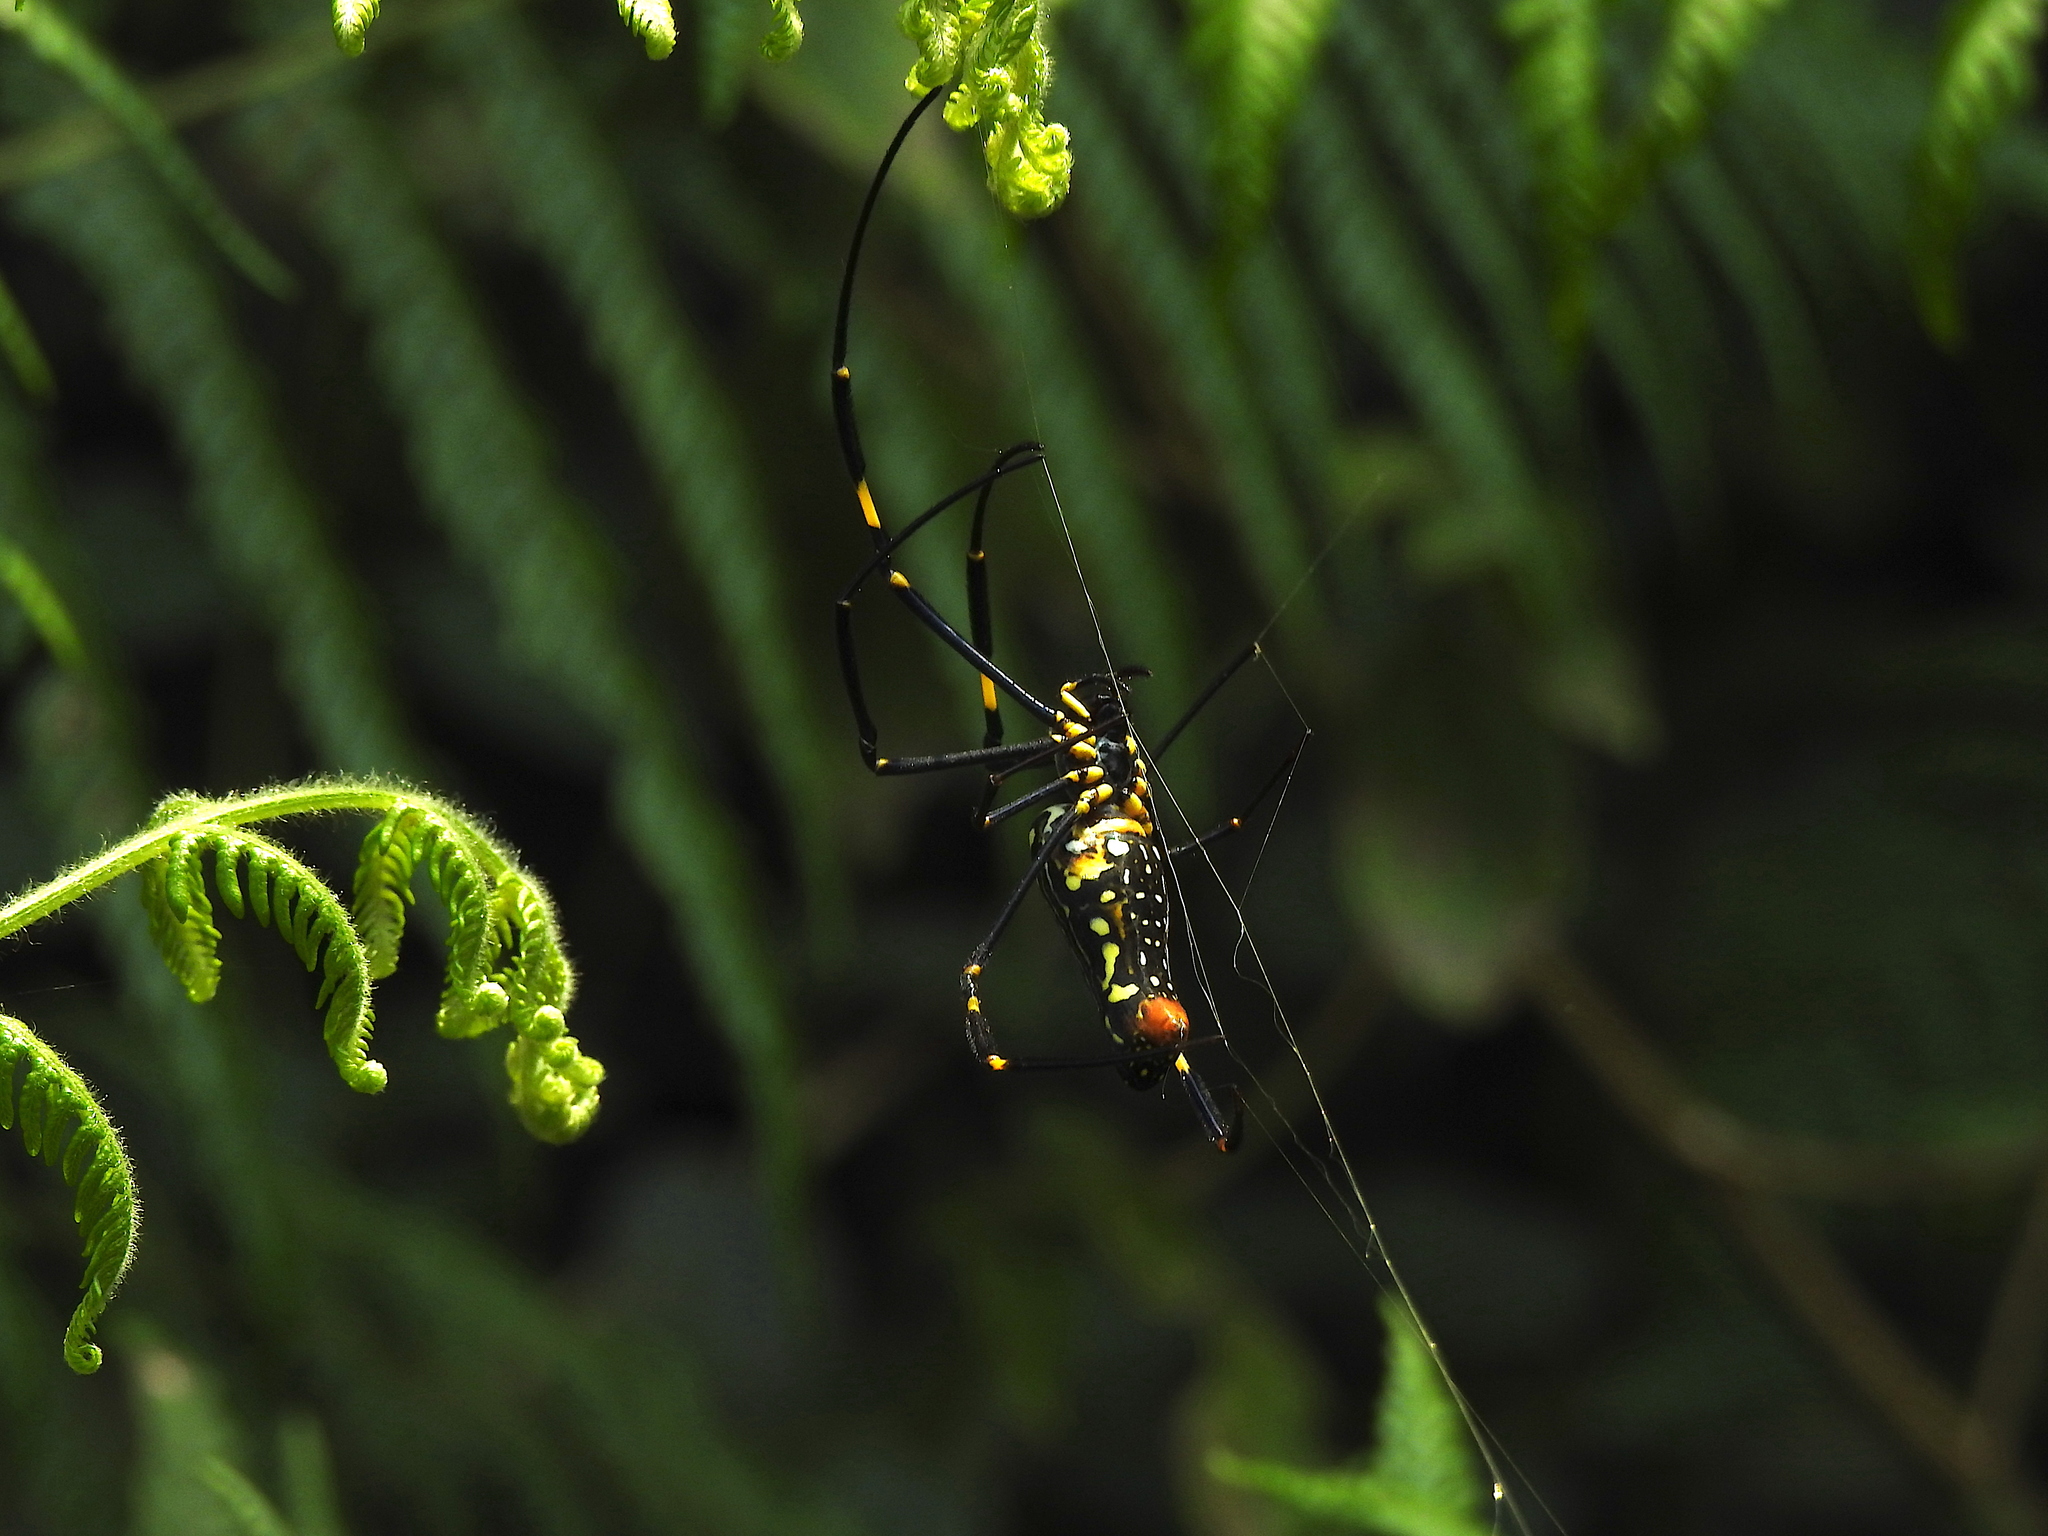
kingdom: Animalia
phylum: Arthropoda
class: Arachnida
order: Araneae
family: Araneidae
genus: Nephila
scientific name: Nephila pilipes
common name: Giant golden orb weaver
